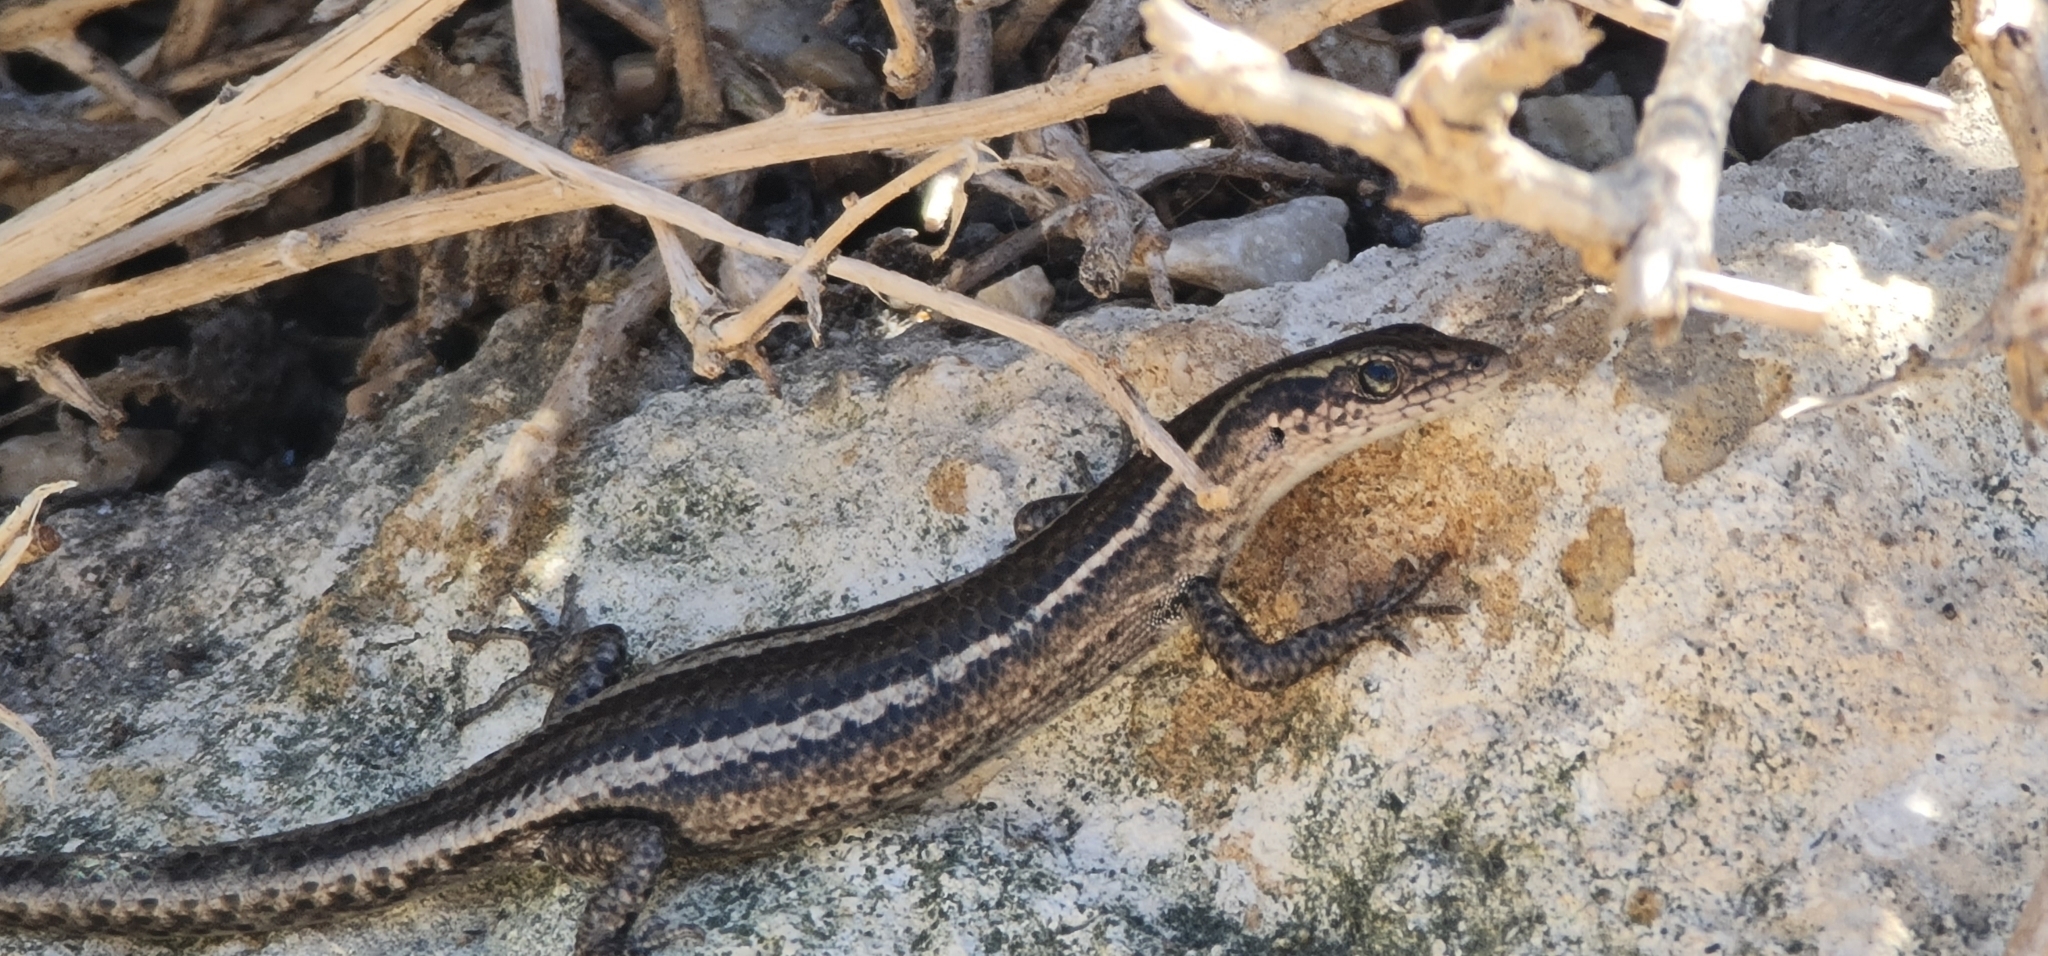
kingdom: Animalia
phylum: Chordata
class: Squamata
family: Scincidae
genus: Cryptoblepharus
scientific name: Cryptoblepharus pulcher
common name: Elegant snake-eyed skink
